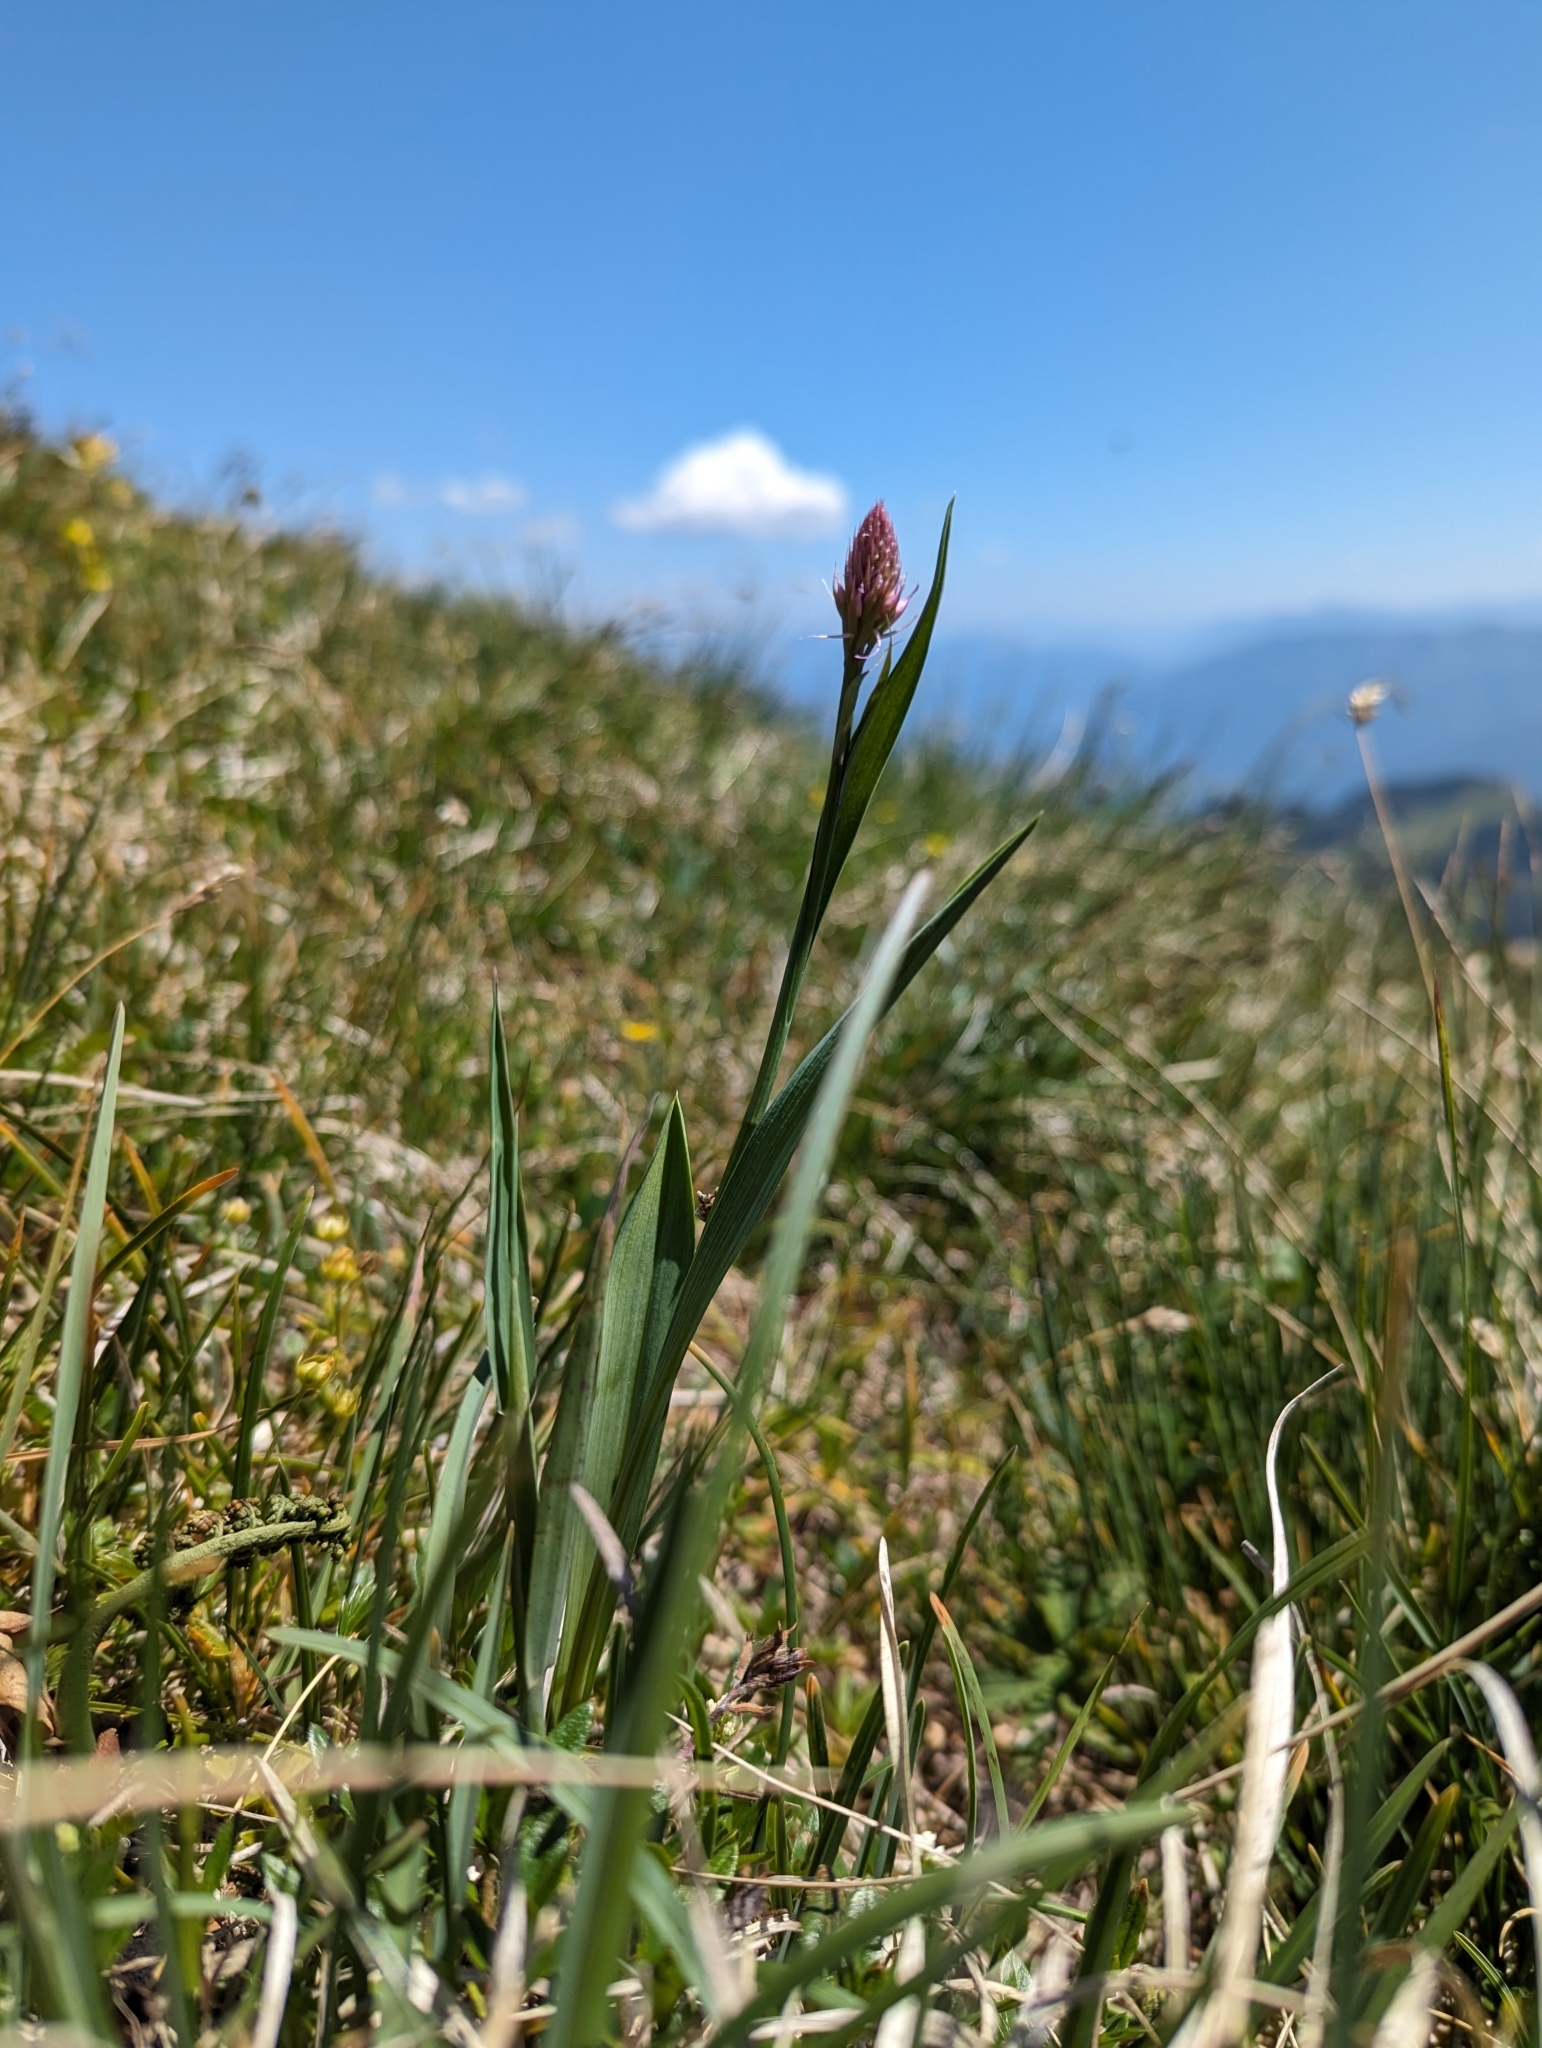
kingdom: Plantae
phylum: Tracheophyta
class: Liliopsida
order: Asparagales
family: Orchidaceae
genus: Traunsteinera
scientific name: Traunsteinera globosa
